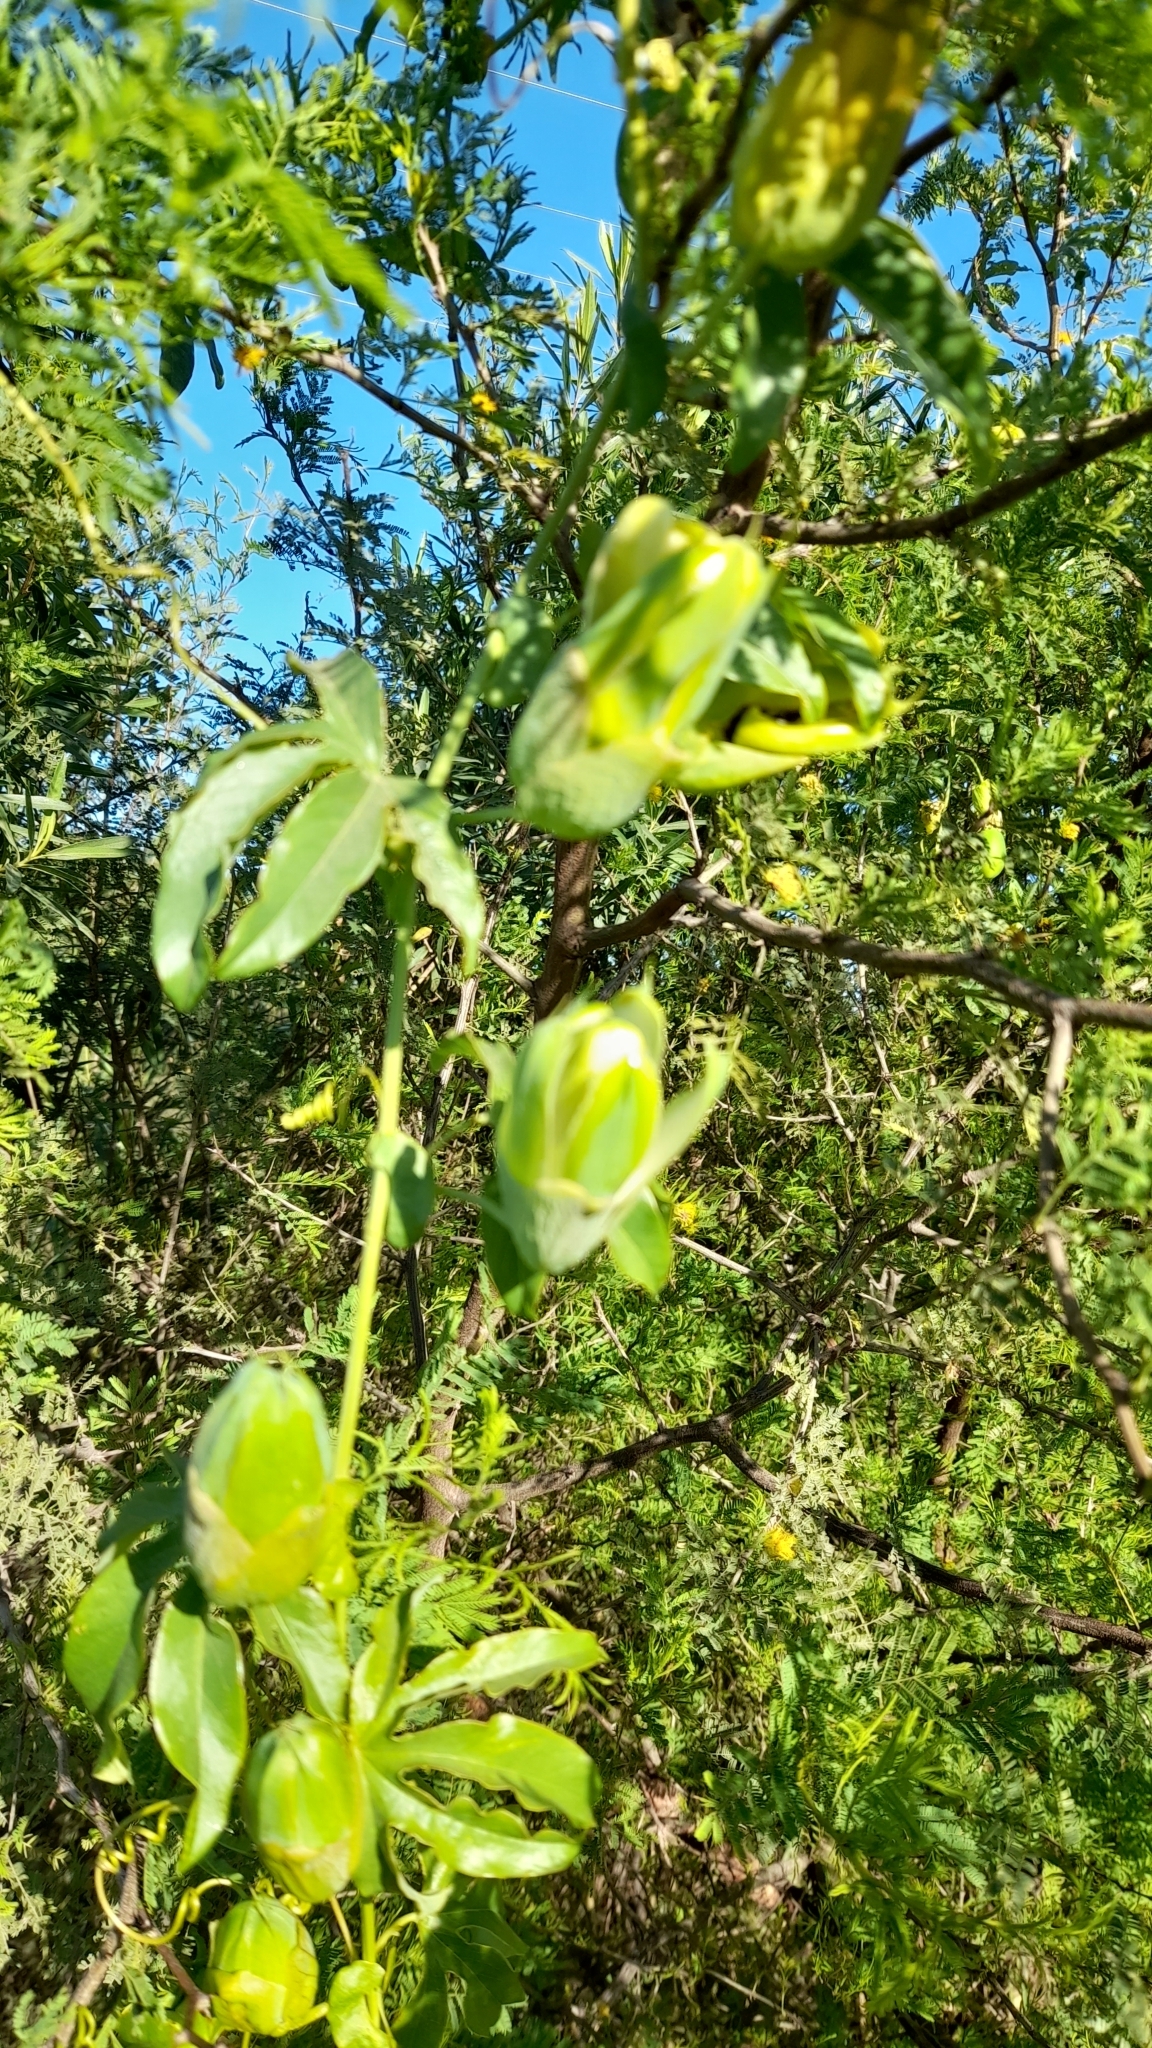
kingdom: Plantae
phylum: Tracheophyta
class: Magnoliopsida
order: Malpighiales
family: Passifloraceae
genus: Passiflora
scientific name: Passiflora caerulea
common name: Blue passionflower
